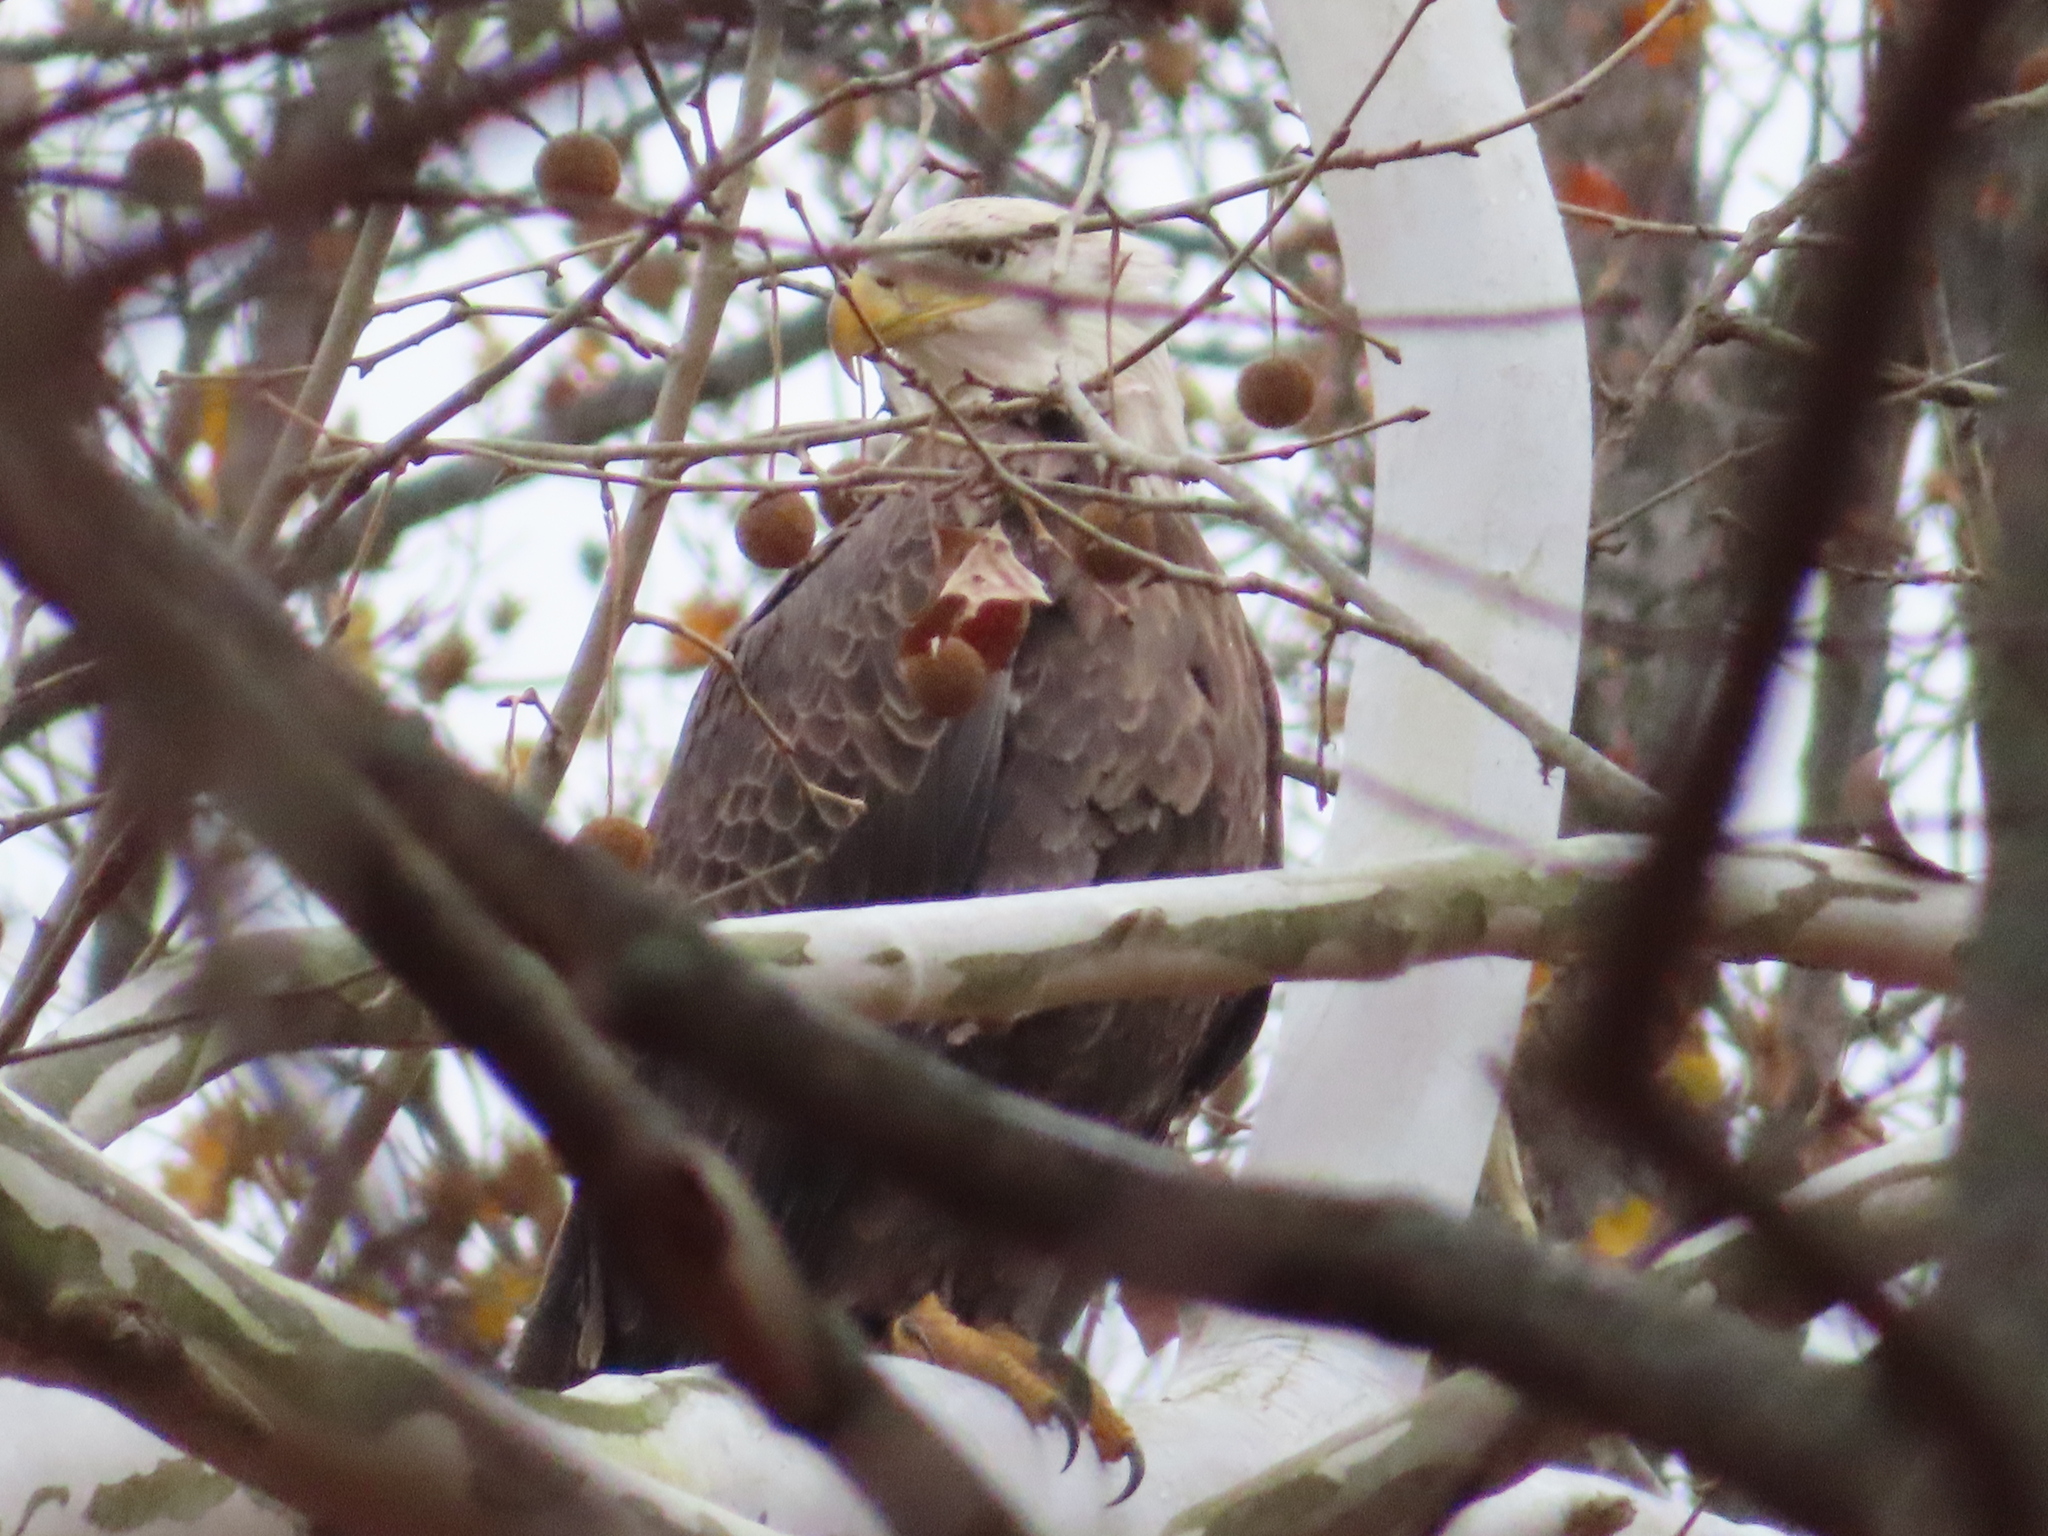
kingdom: Animalia
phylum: Chordata
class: Aves
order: Accipitriformes
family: Accipitridae
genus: Haliaeetus
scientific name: Haliaeetus leucocephalus
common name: Bald eagle
